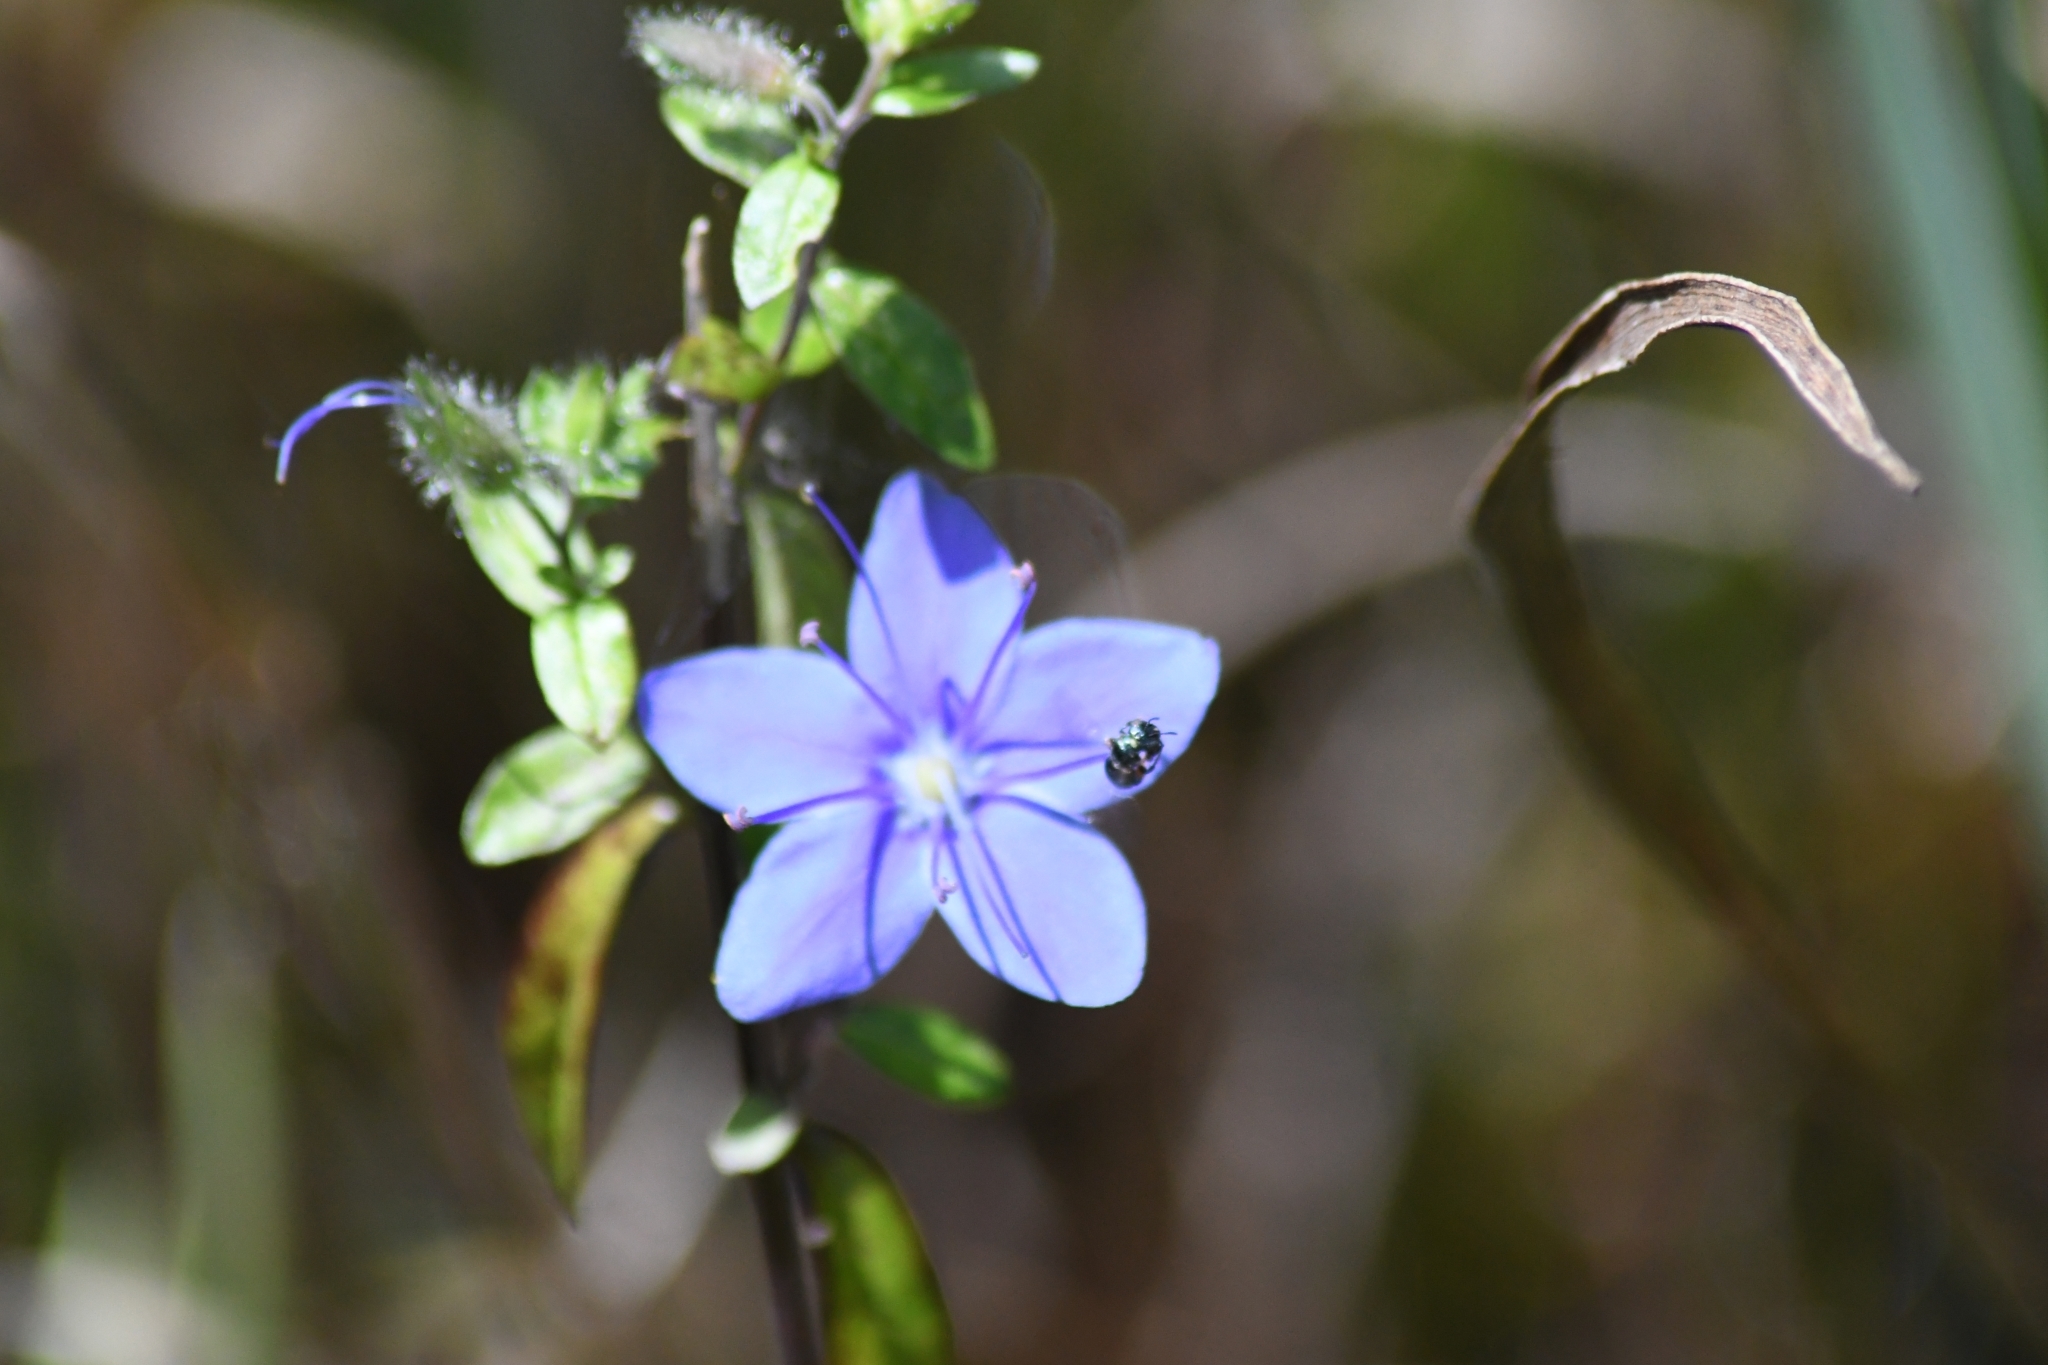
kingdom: Plantae
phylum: Tracheophyta
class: Magnoliopsida
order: Solanales
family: Hydroleaceae
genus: Hydrolea
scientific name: Hydrolea corymbosa
